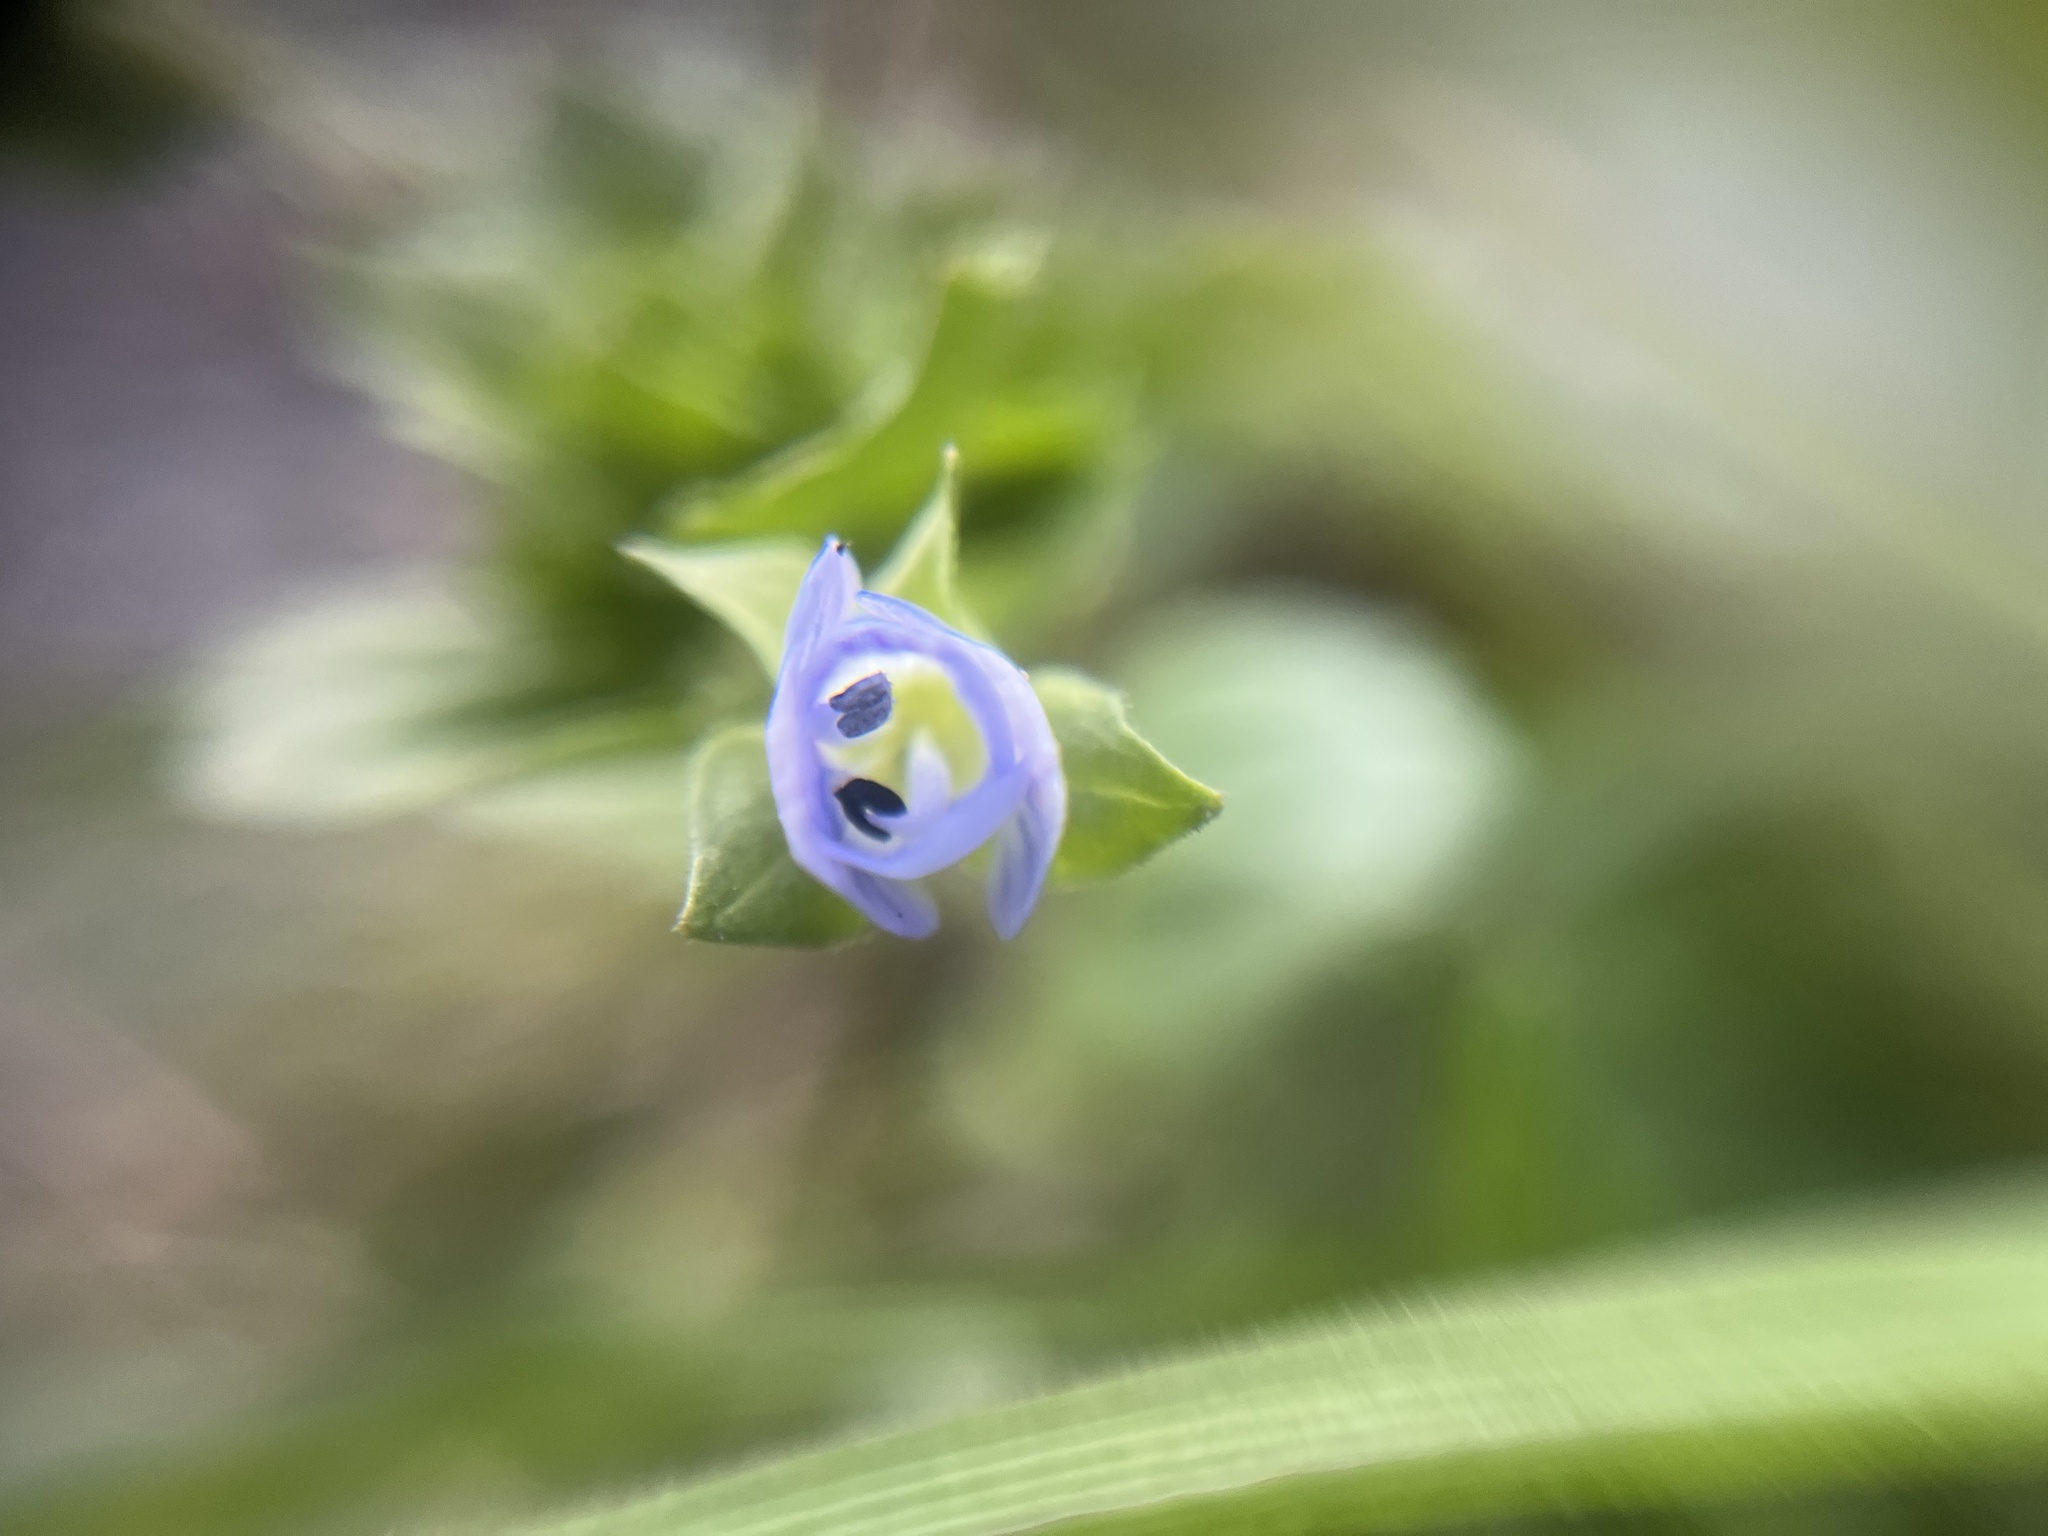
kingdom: Plantae
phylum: Tracheophyta
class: Magnoliopsida
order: Lamiales
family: Plantaginaceae
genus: Veronica
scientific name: Veronica persica
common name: Common field-speedwell
